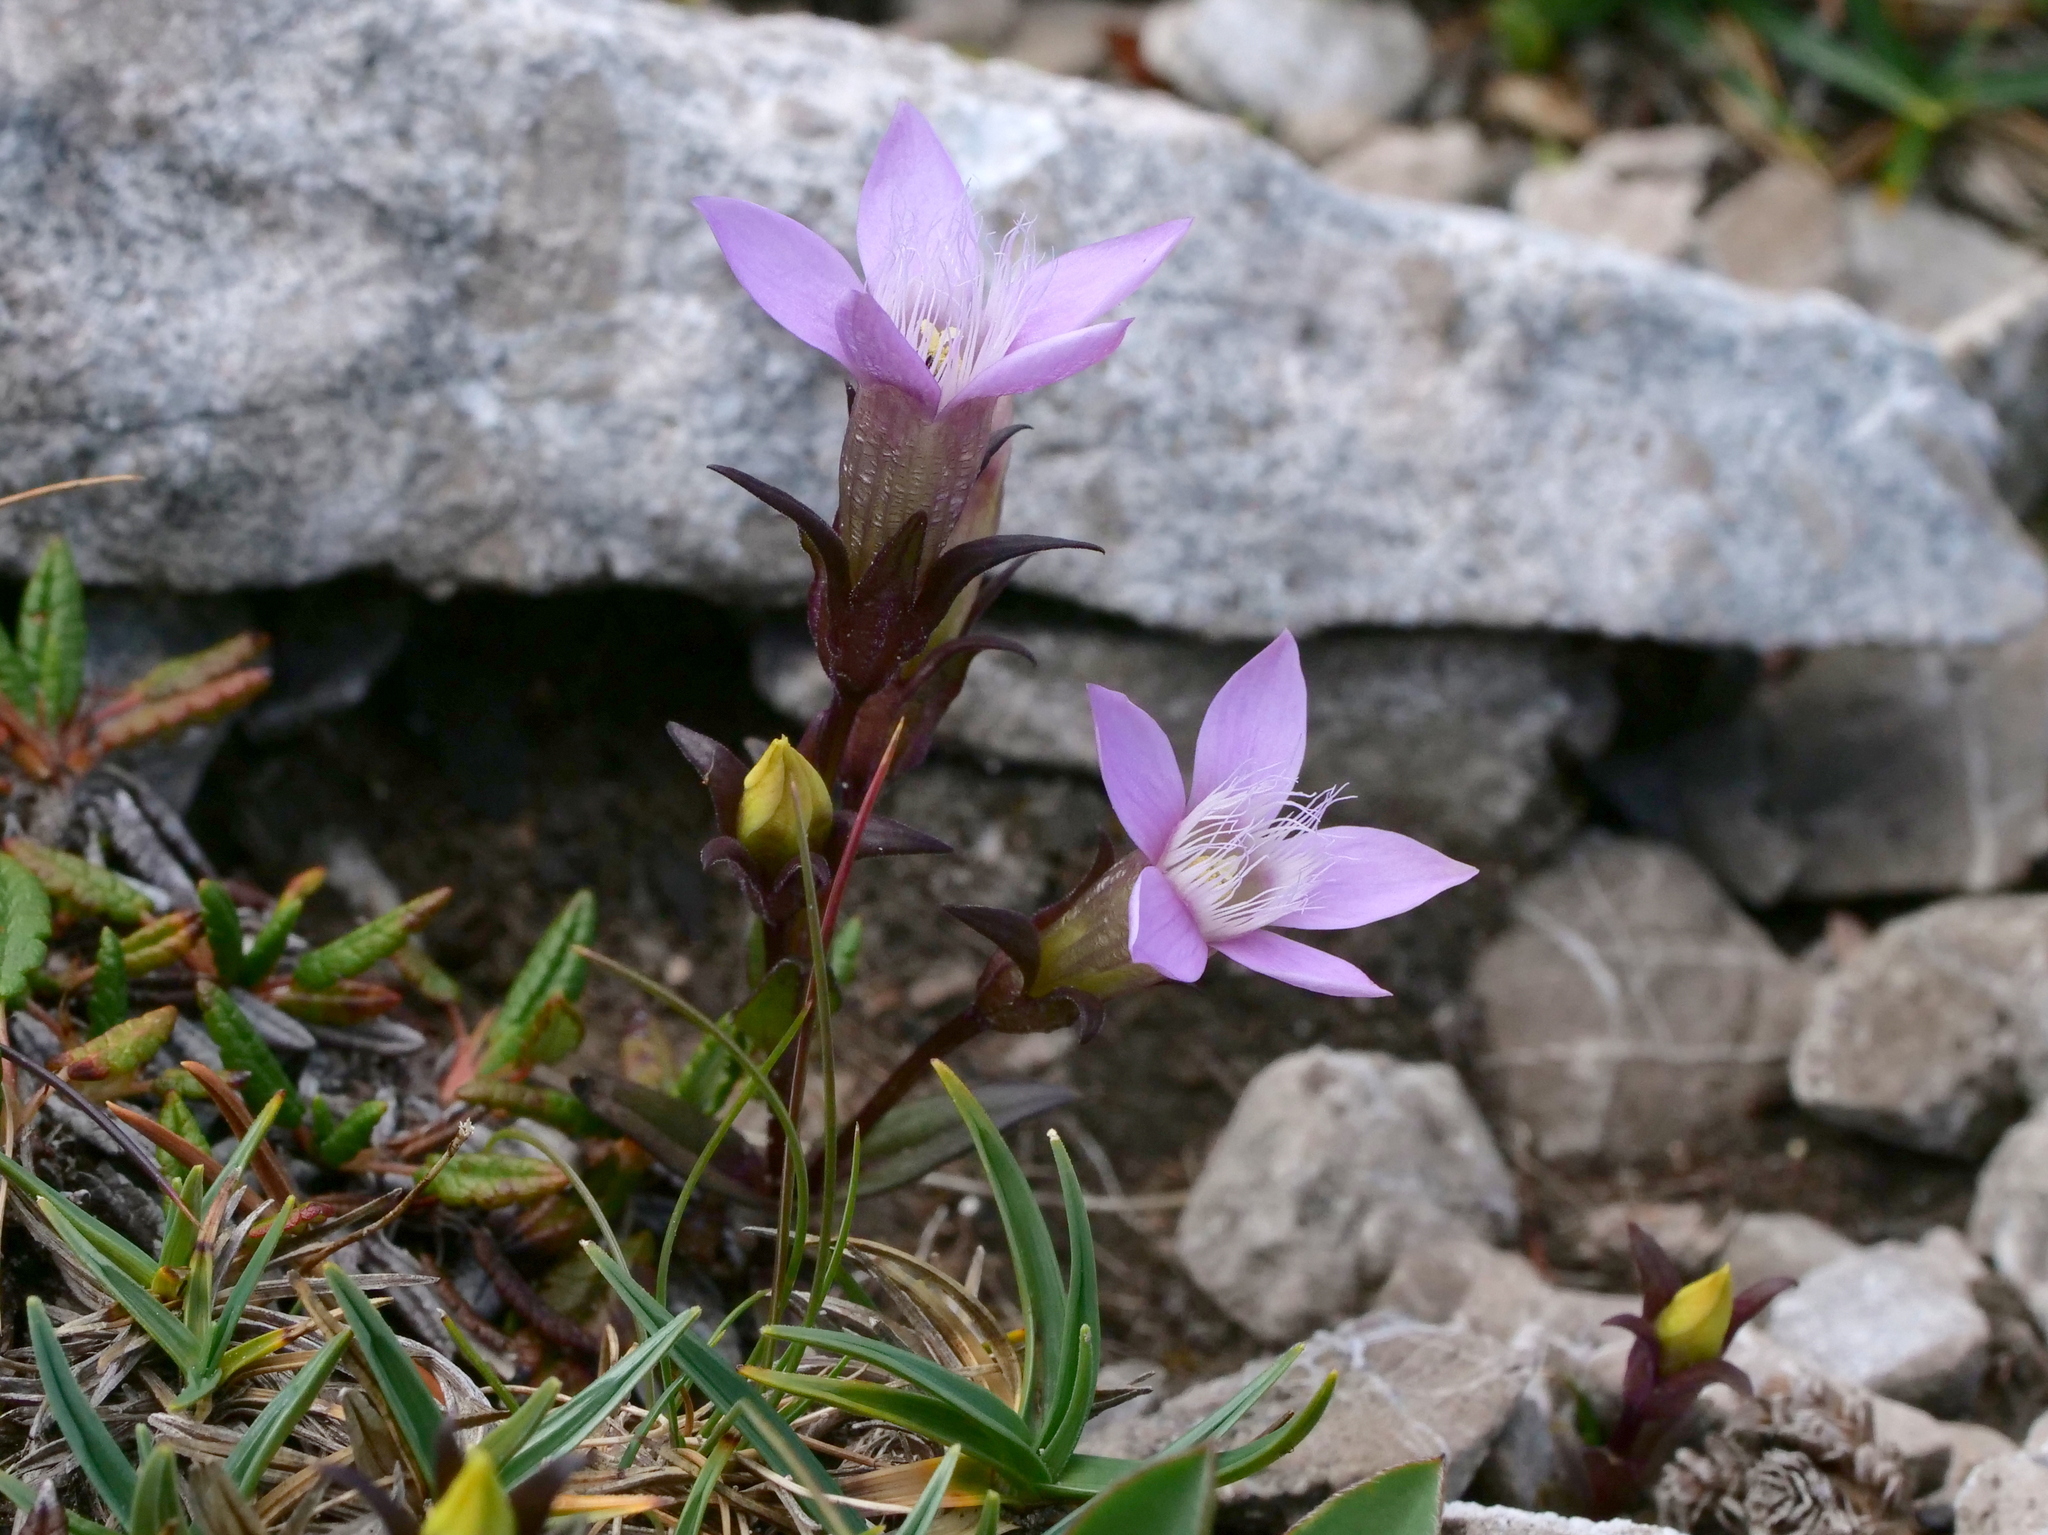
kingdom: Plantae
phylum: Tracheophyta
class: Magnoliopsida
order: Gentianales
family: Gentianaceae
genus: Gentianella
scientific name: Gentianella obtusifolia
